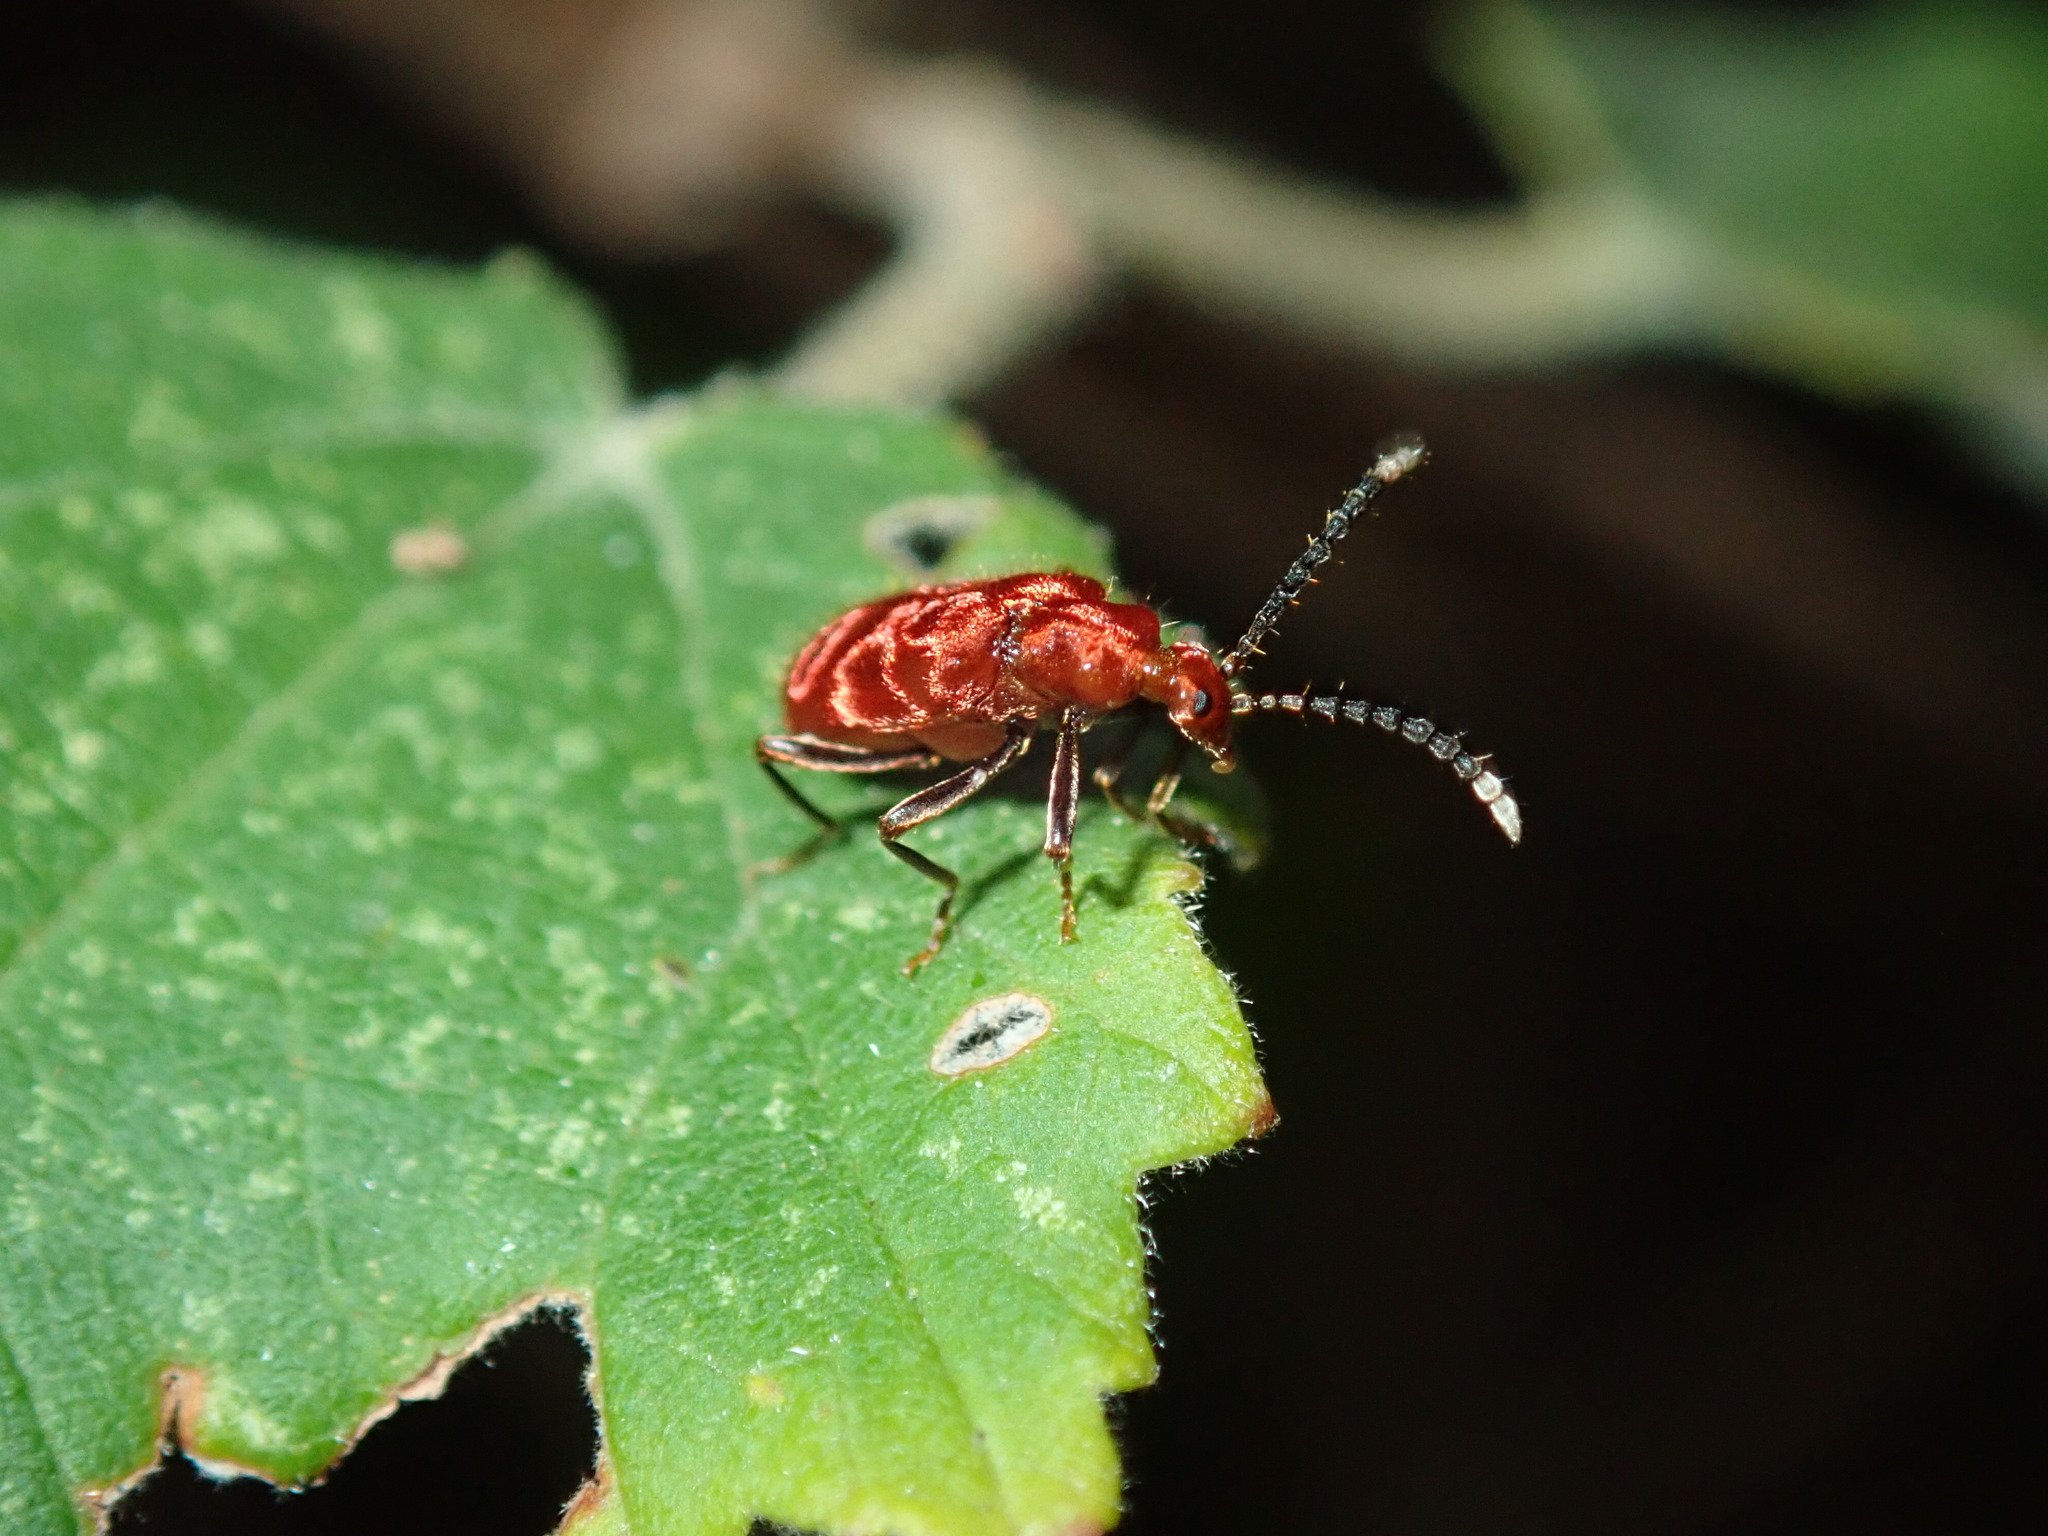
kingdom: Animalia
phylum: Arthropoda
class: Insecta
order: Coleoptera
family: Anthicidae
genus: Lemodes
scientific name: Lemodes
